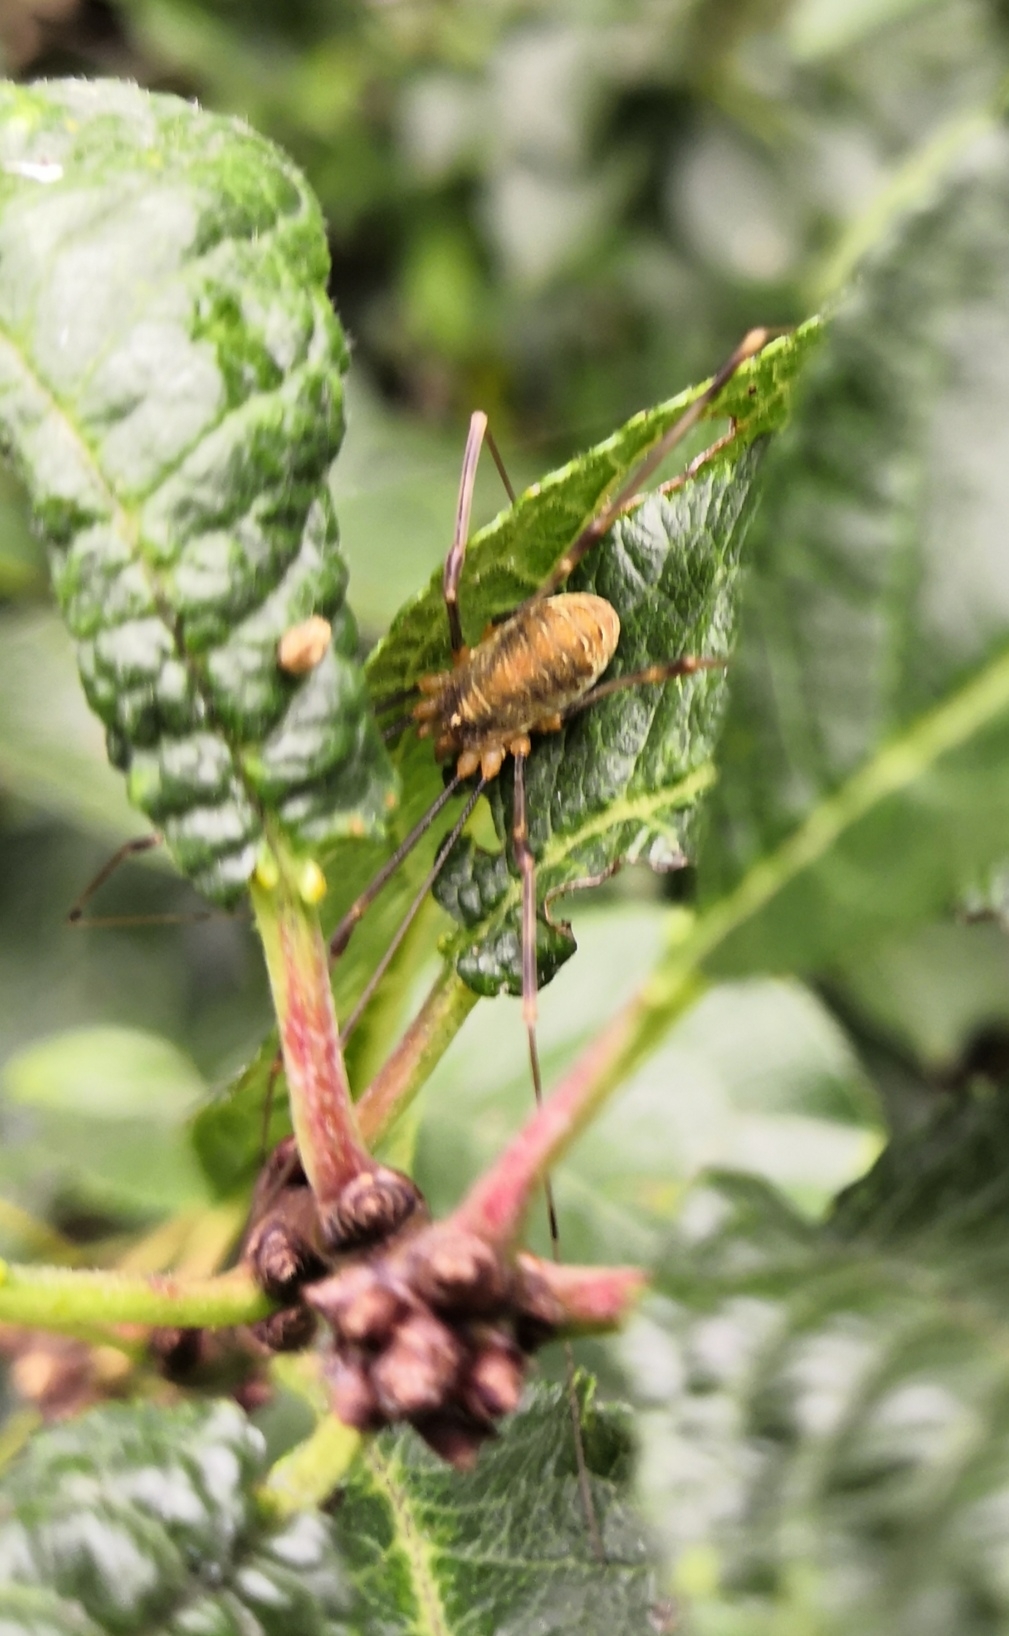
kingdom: Animalia
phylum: Arthropoda
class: Arachnida
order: Opiliones
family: Phalangiidae
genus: Opilio
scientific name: Opilio canestrinii
